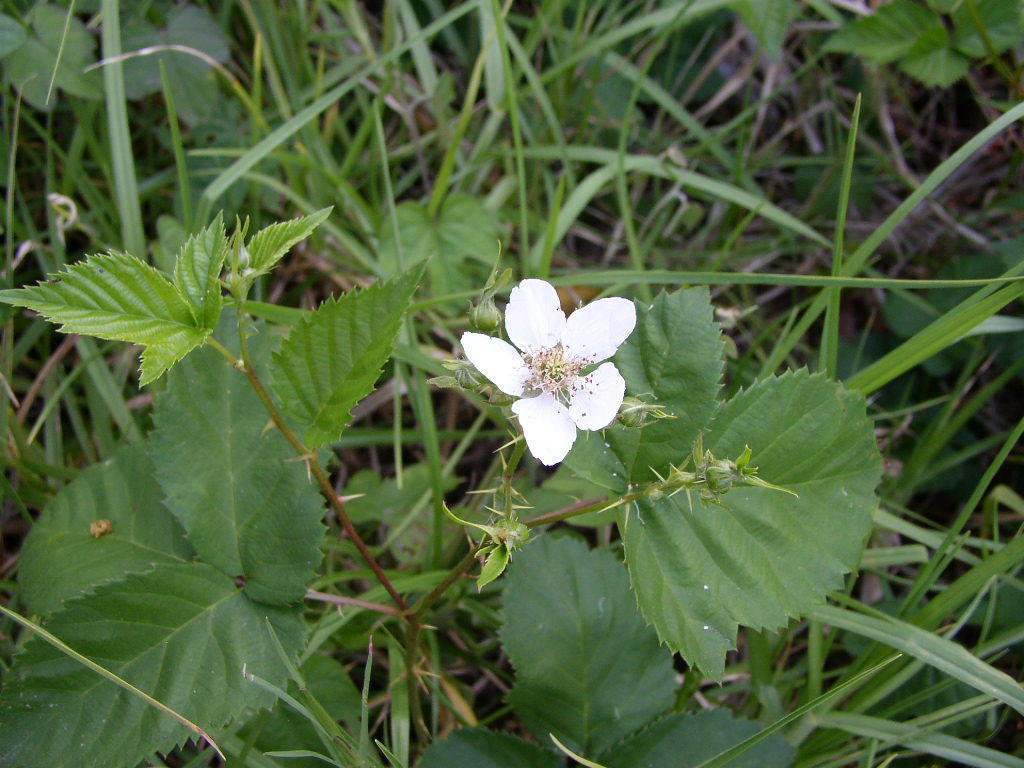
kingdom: Plantae
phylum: Tracheophyta
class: Magnoliopsida
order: Rosales
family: Rosaceae
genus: Rubus
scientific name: Rubus affinis
